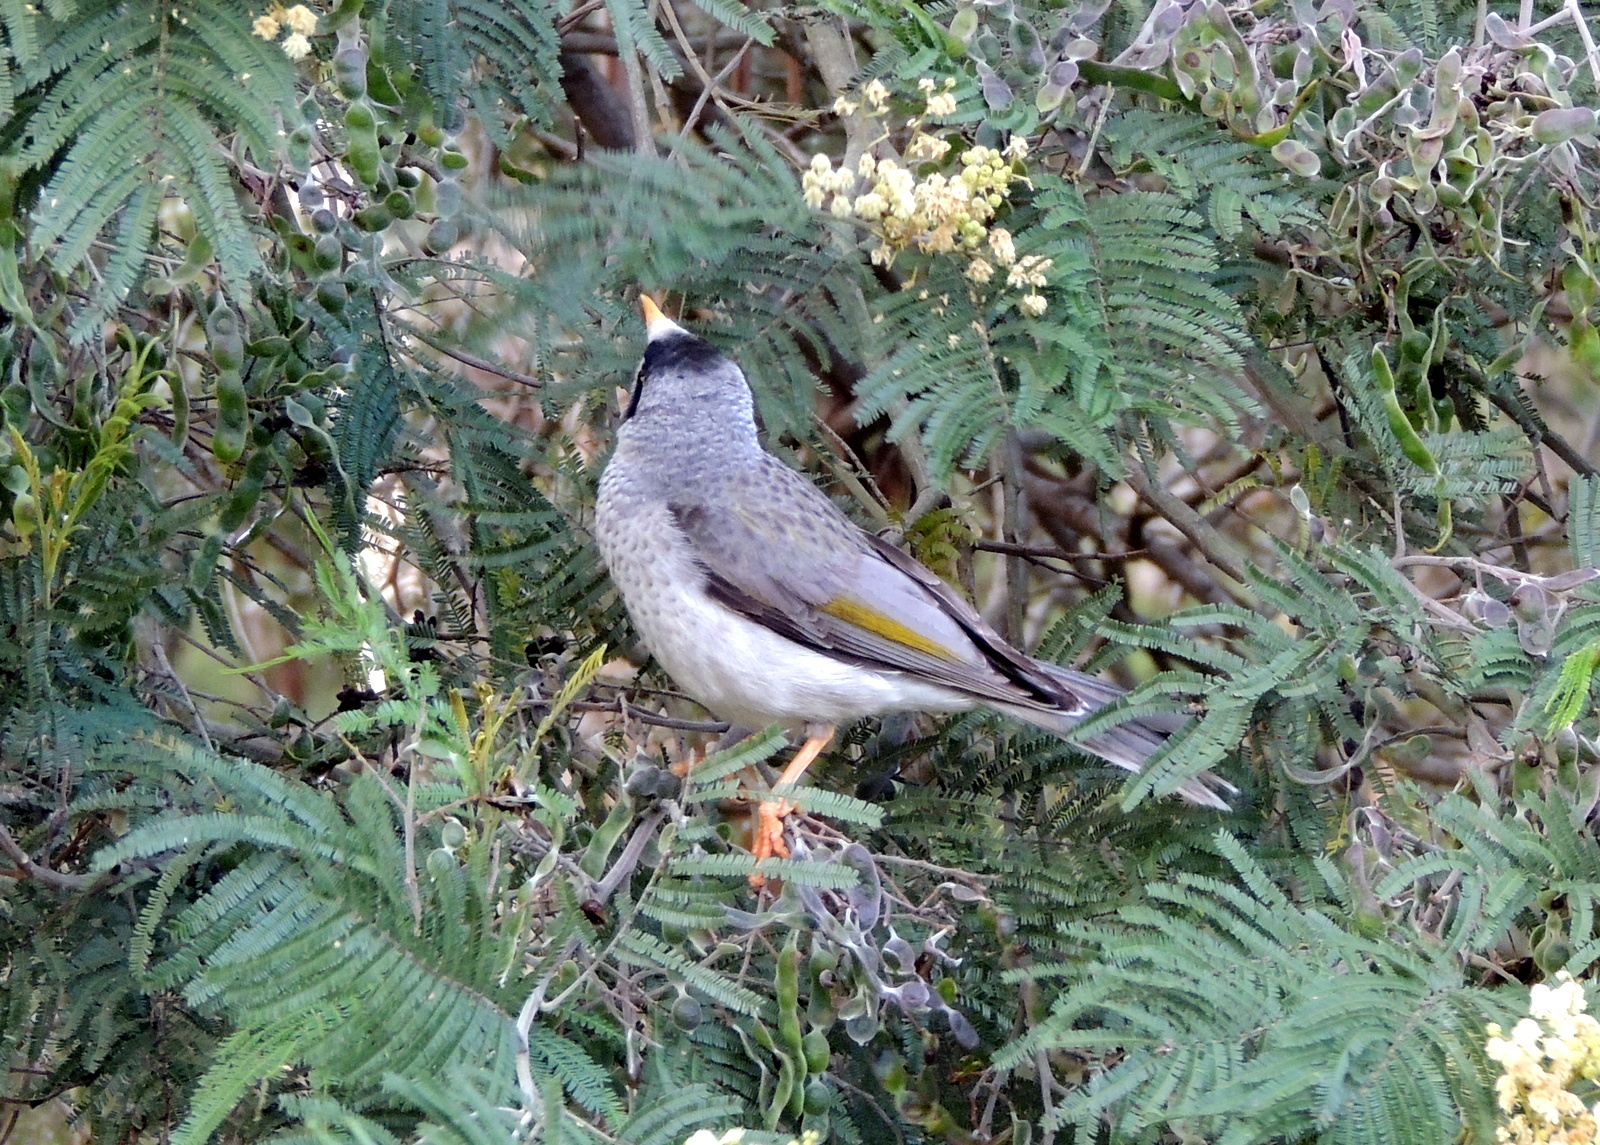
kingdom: Animalia
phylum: Chordata
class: Aves
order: Passeriformes
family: Meliphagidae
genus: Manorina
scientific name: Manorina melanocephala
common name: Noisy miner
